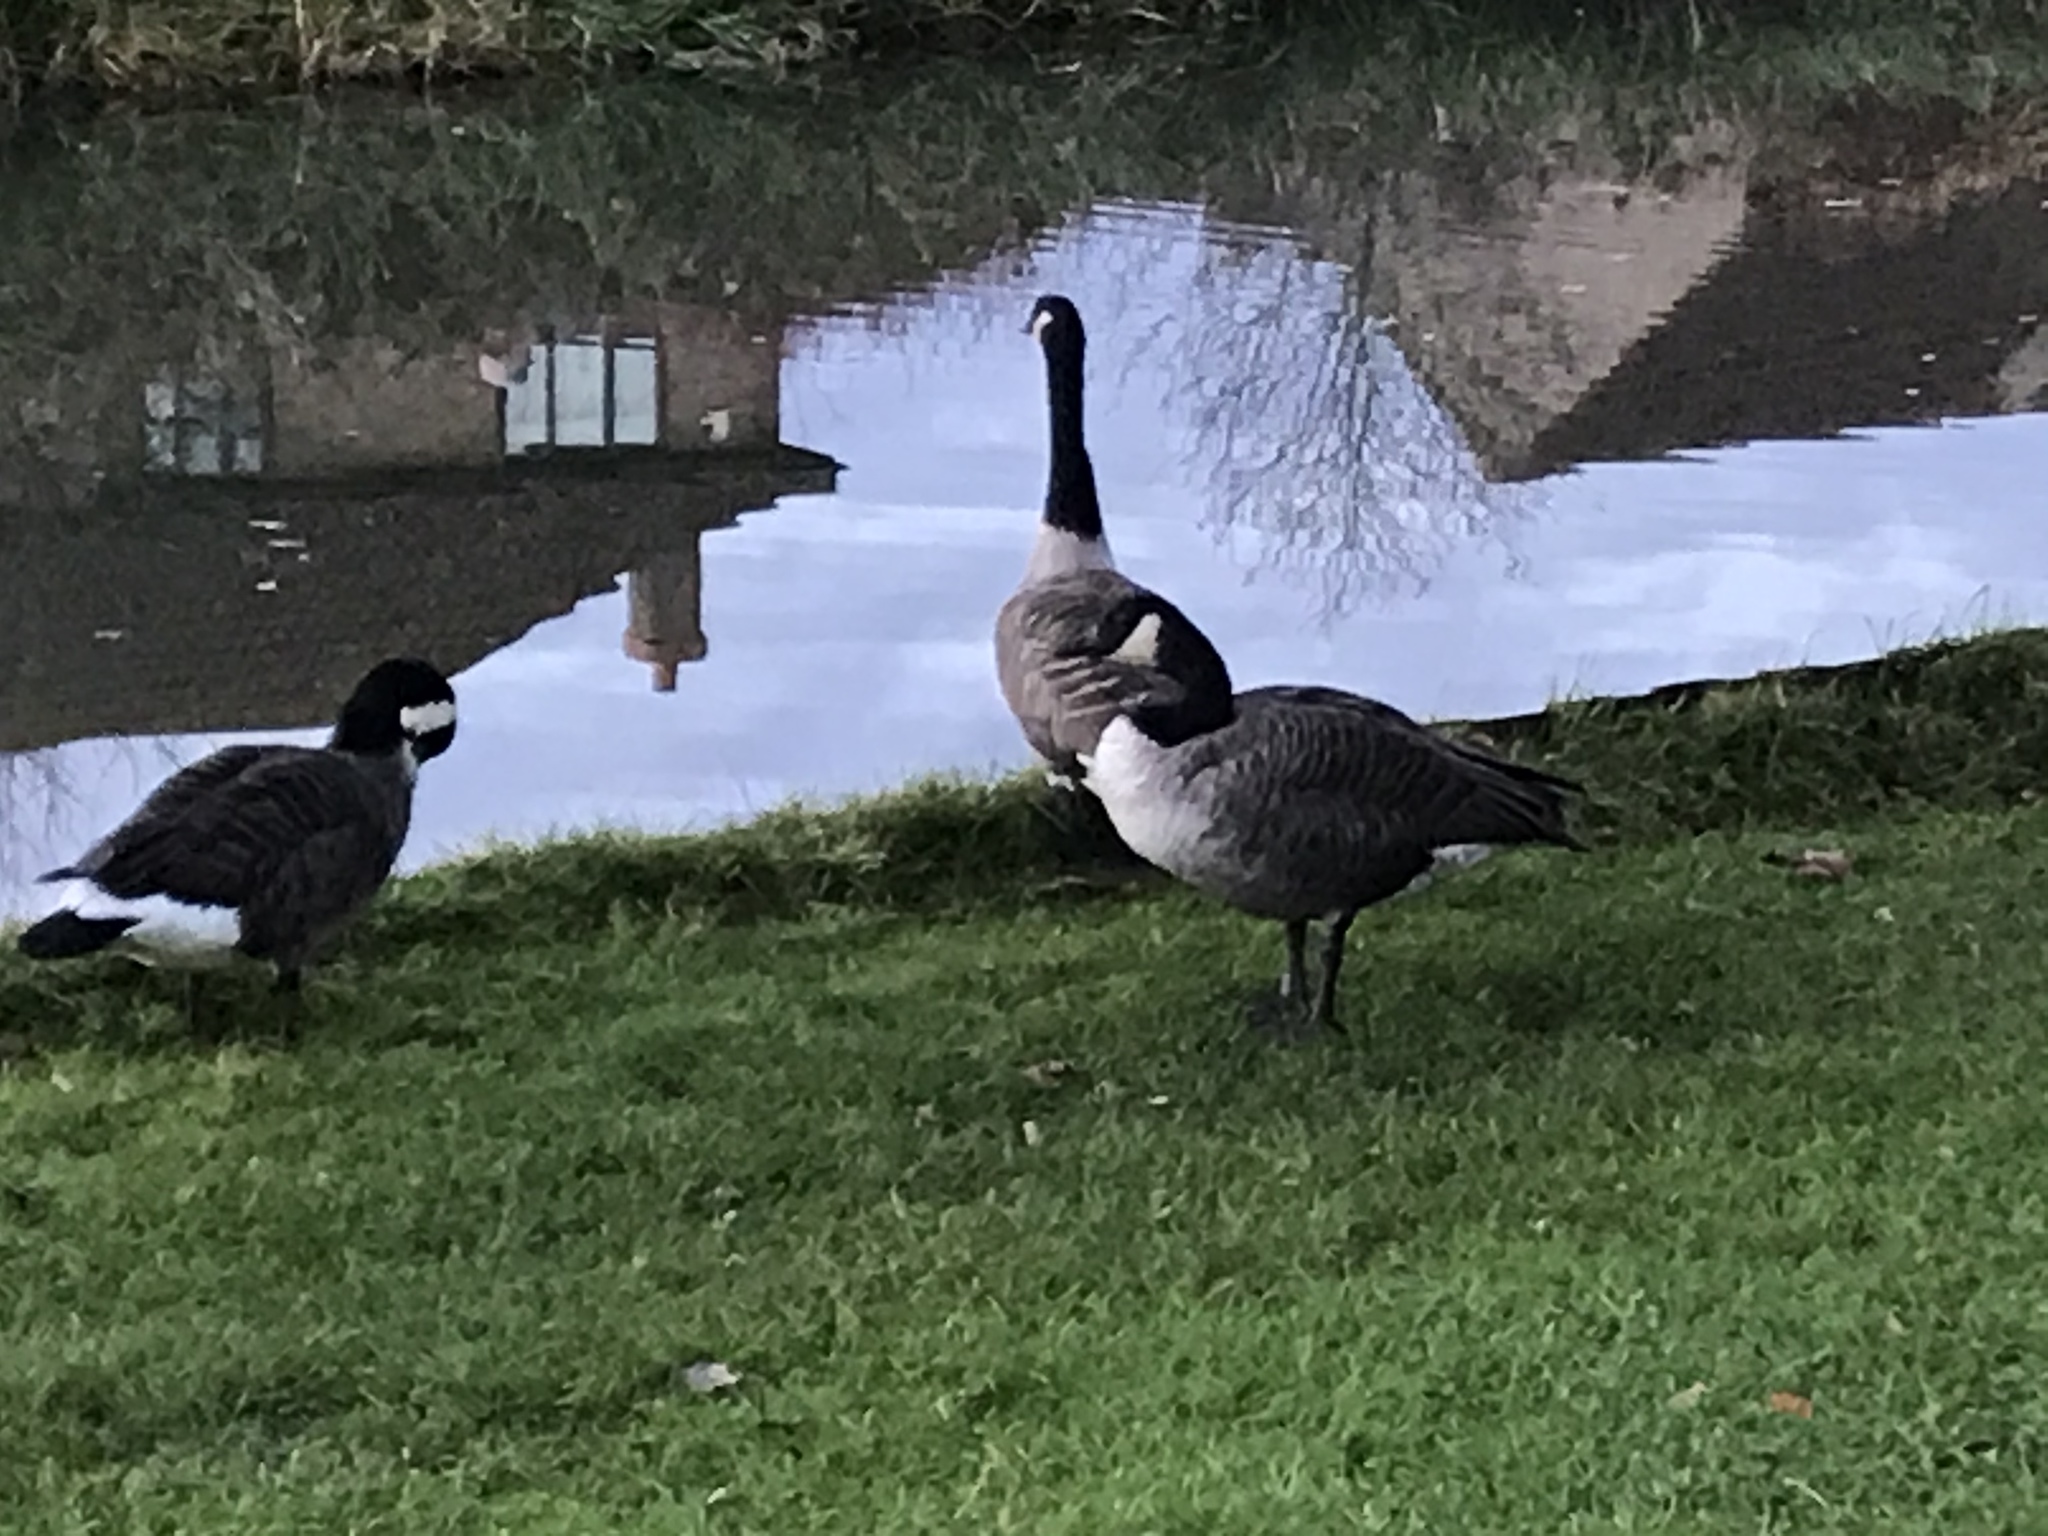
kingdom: Animalia
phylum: Chordata
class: Aves
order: Anseriformes
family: Anatidae
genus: Branta
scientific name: Branta canadensis
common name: Canada goose
